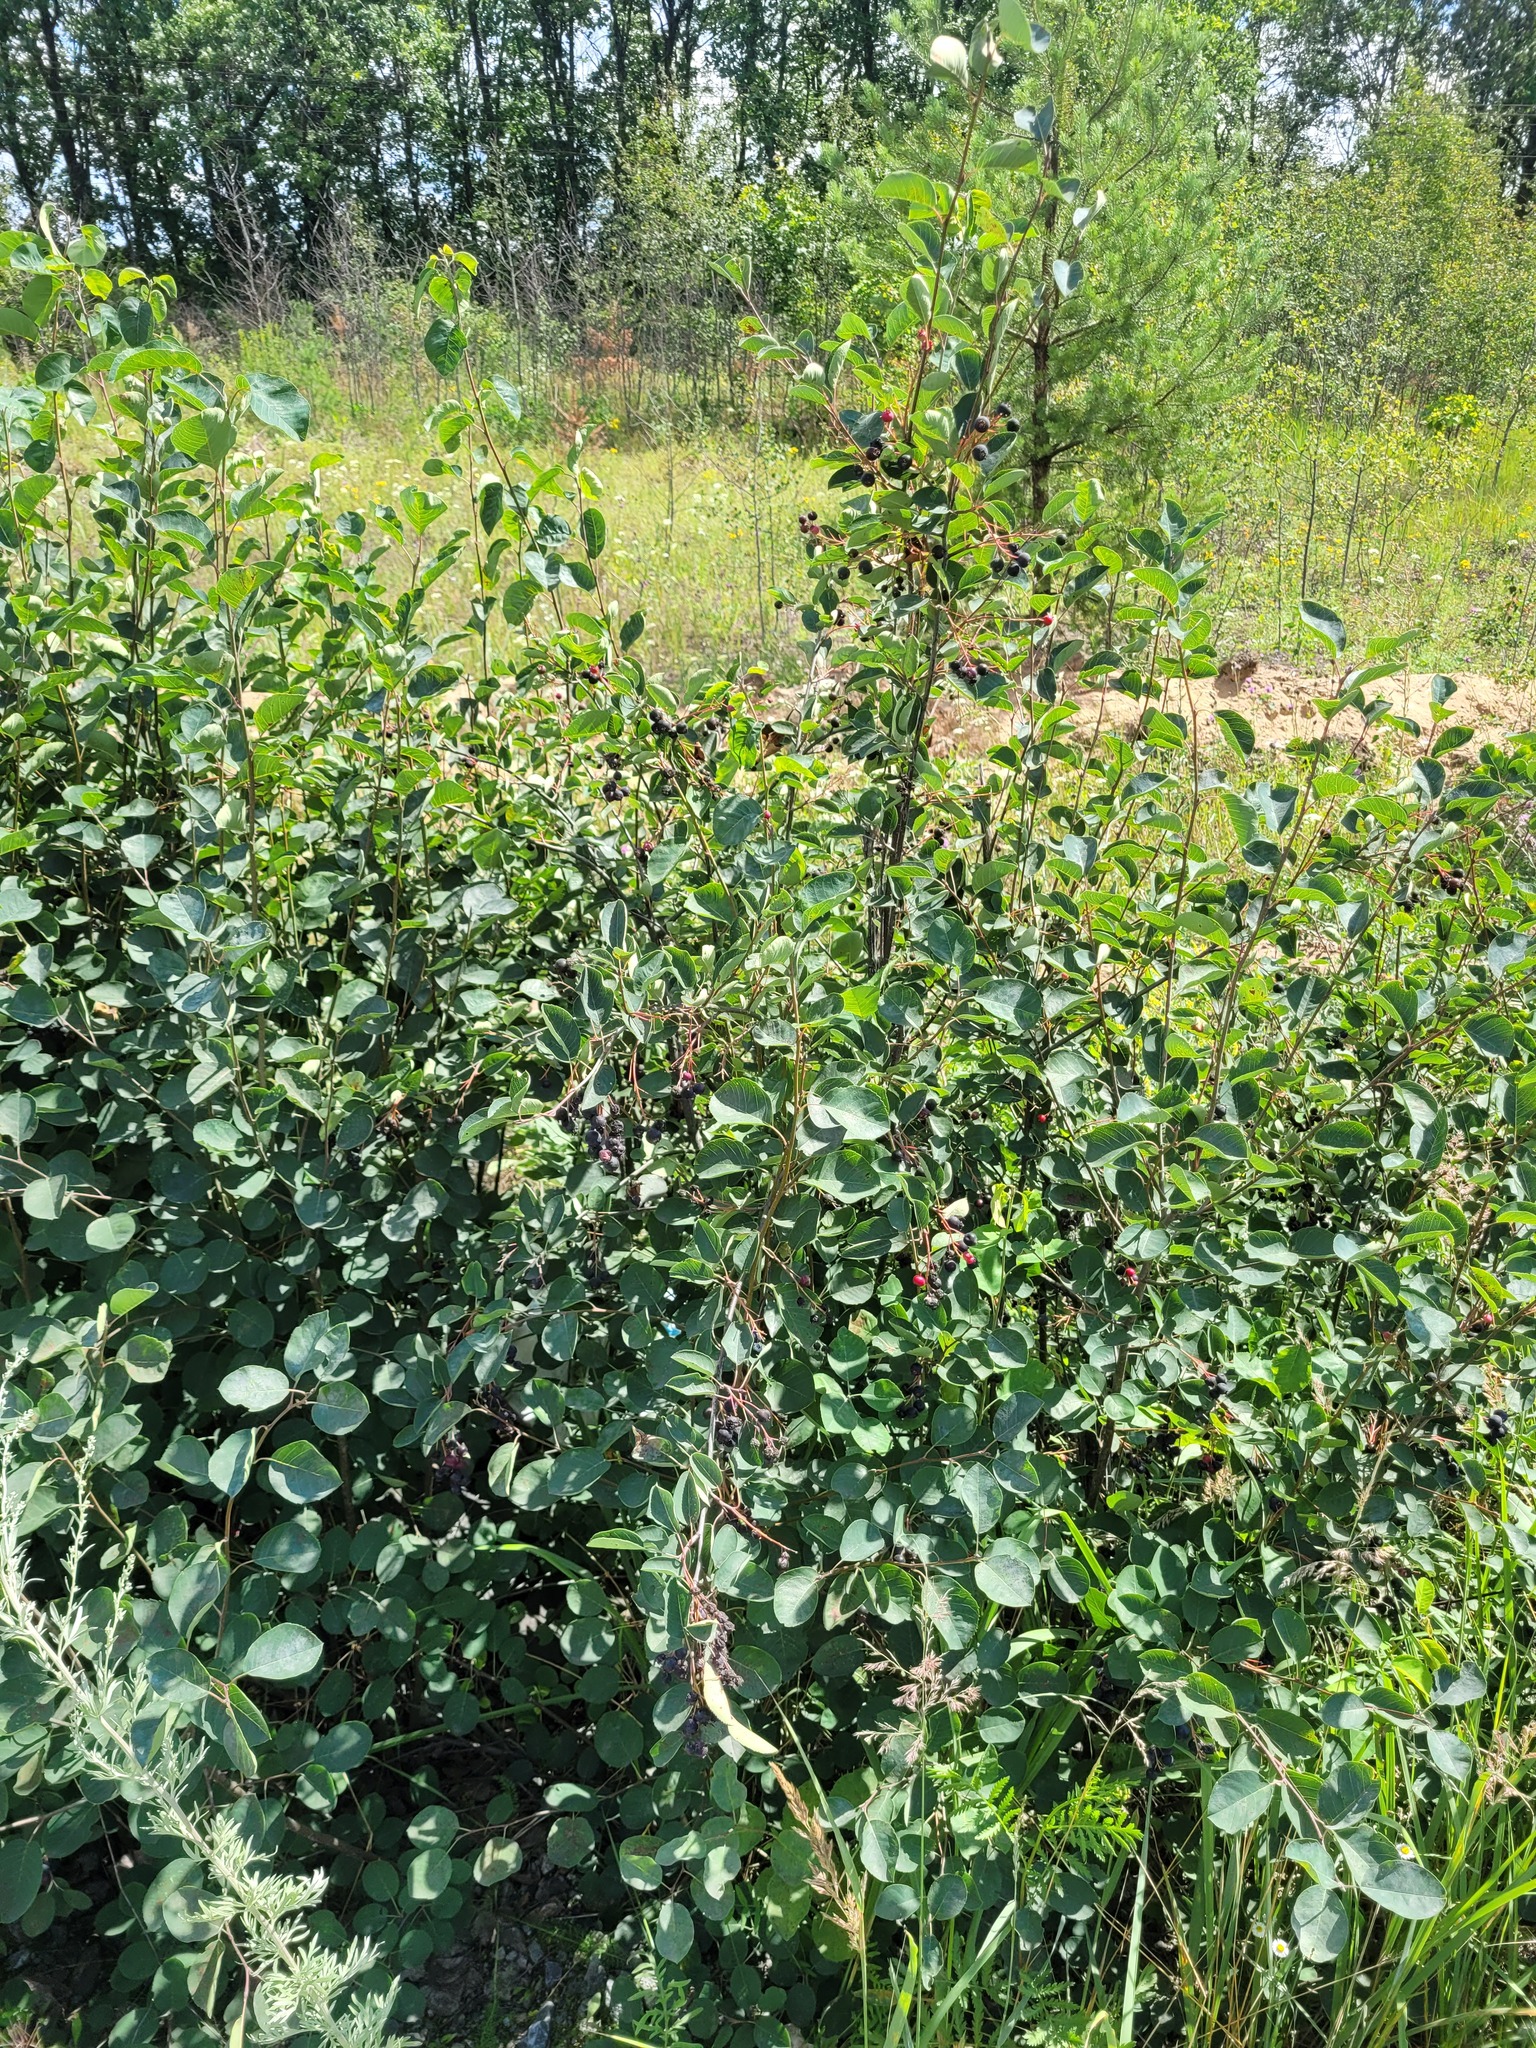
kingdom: Plantae
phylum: Tracheophyta
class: Magnoliopsida
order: Rosales
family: Rosaceae
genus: Amelanchier
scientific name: Amelanchier
